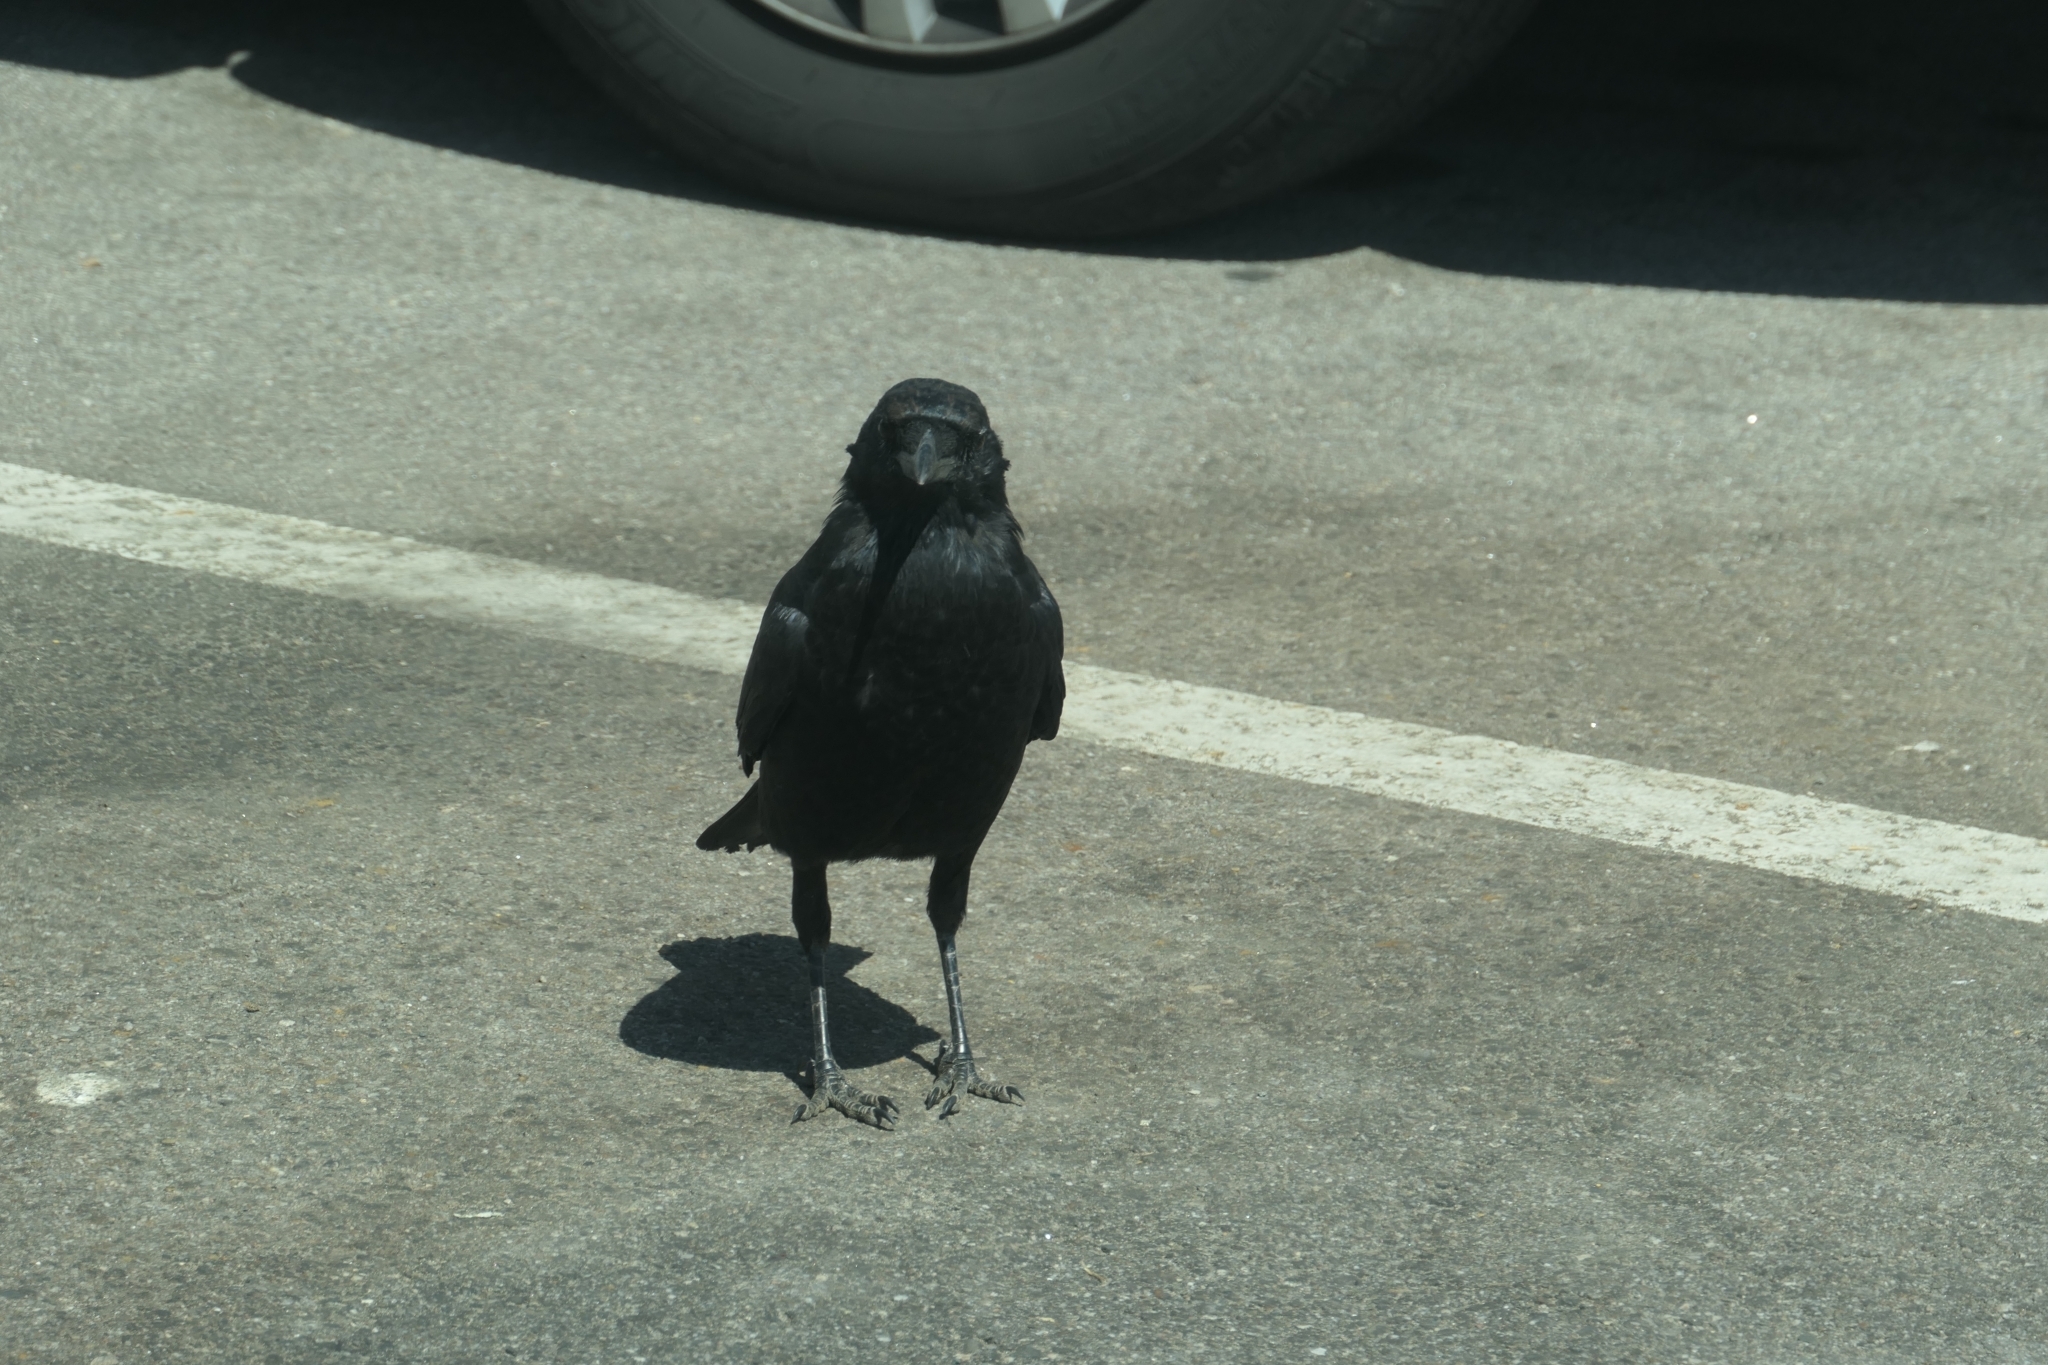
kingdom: Animalia
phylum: Chordata
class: Aves
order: Passeriformes
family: Corvidae
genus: Corvus
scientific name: Corvus brachyrhynchos
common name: American crow
